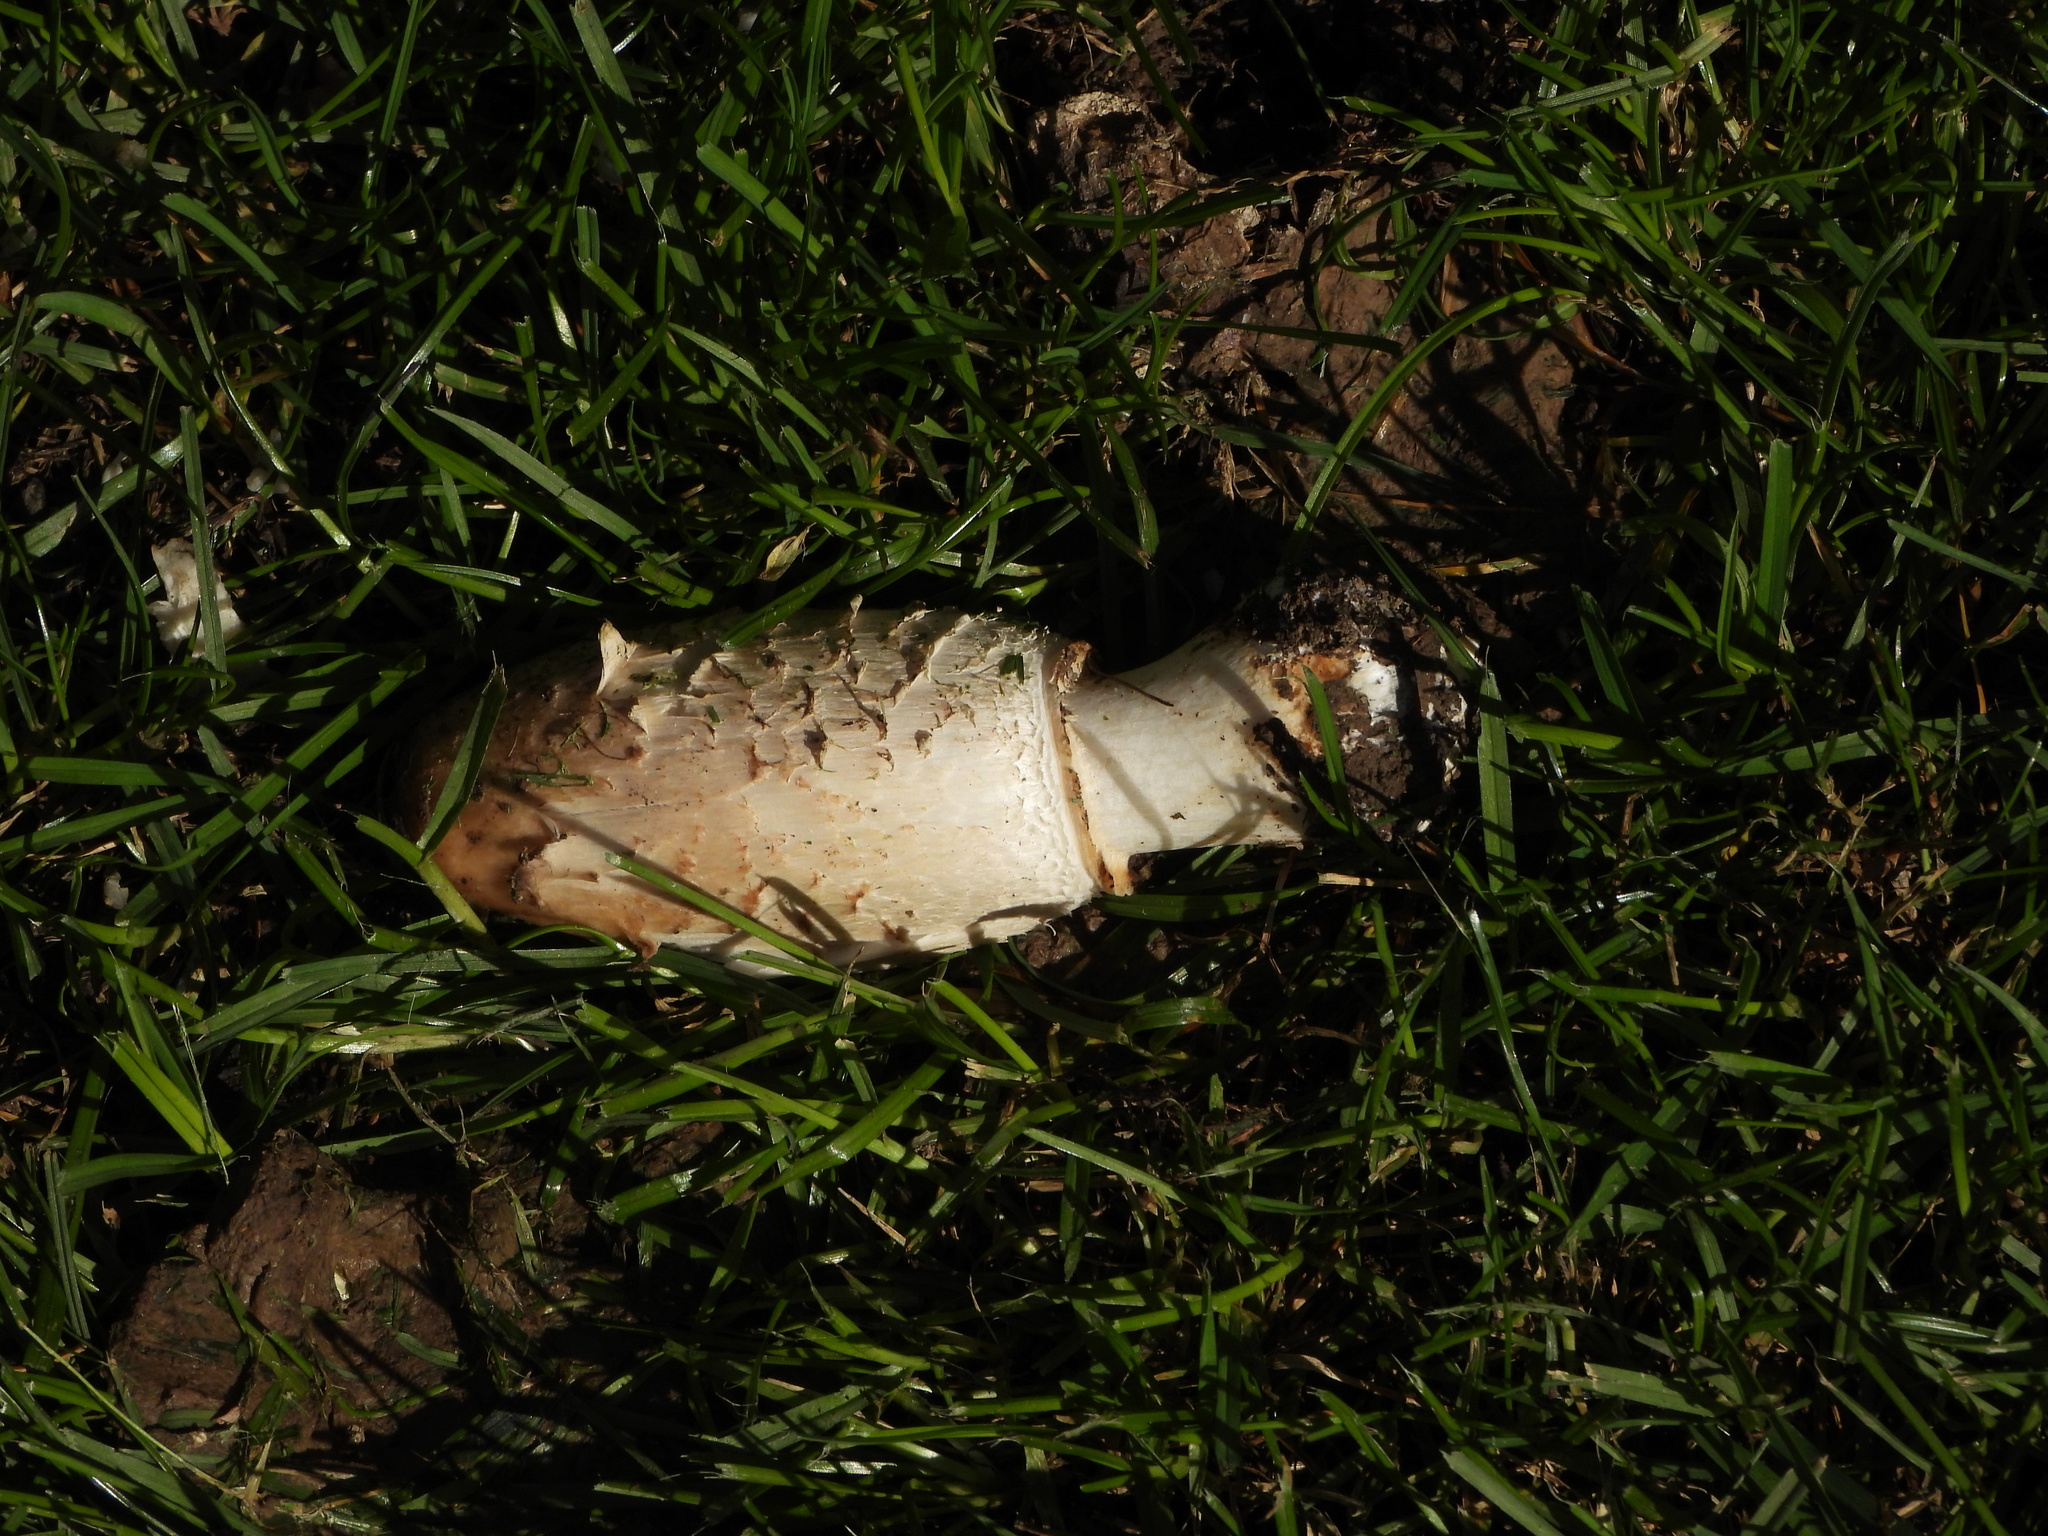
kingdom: Fungi
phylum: Basidiomycota
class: Agaricomycetes
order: Agaricales
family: Agaricaceae
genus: Coprinus
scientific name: Coprinus comatus
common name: Lawyer's wig
